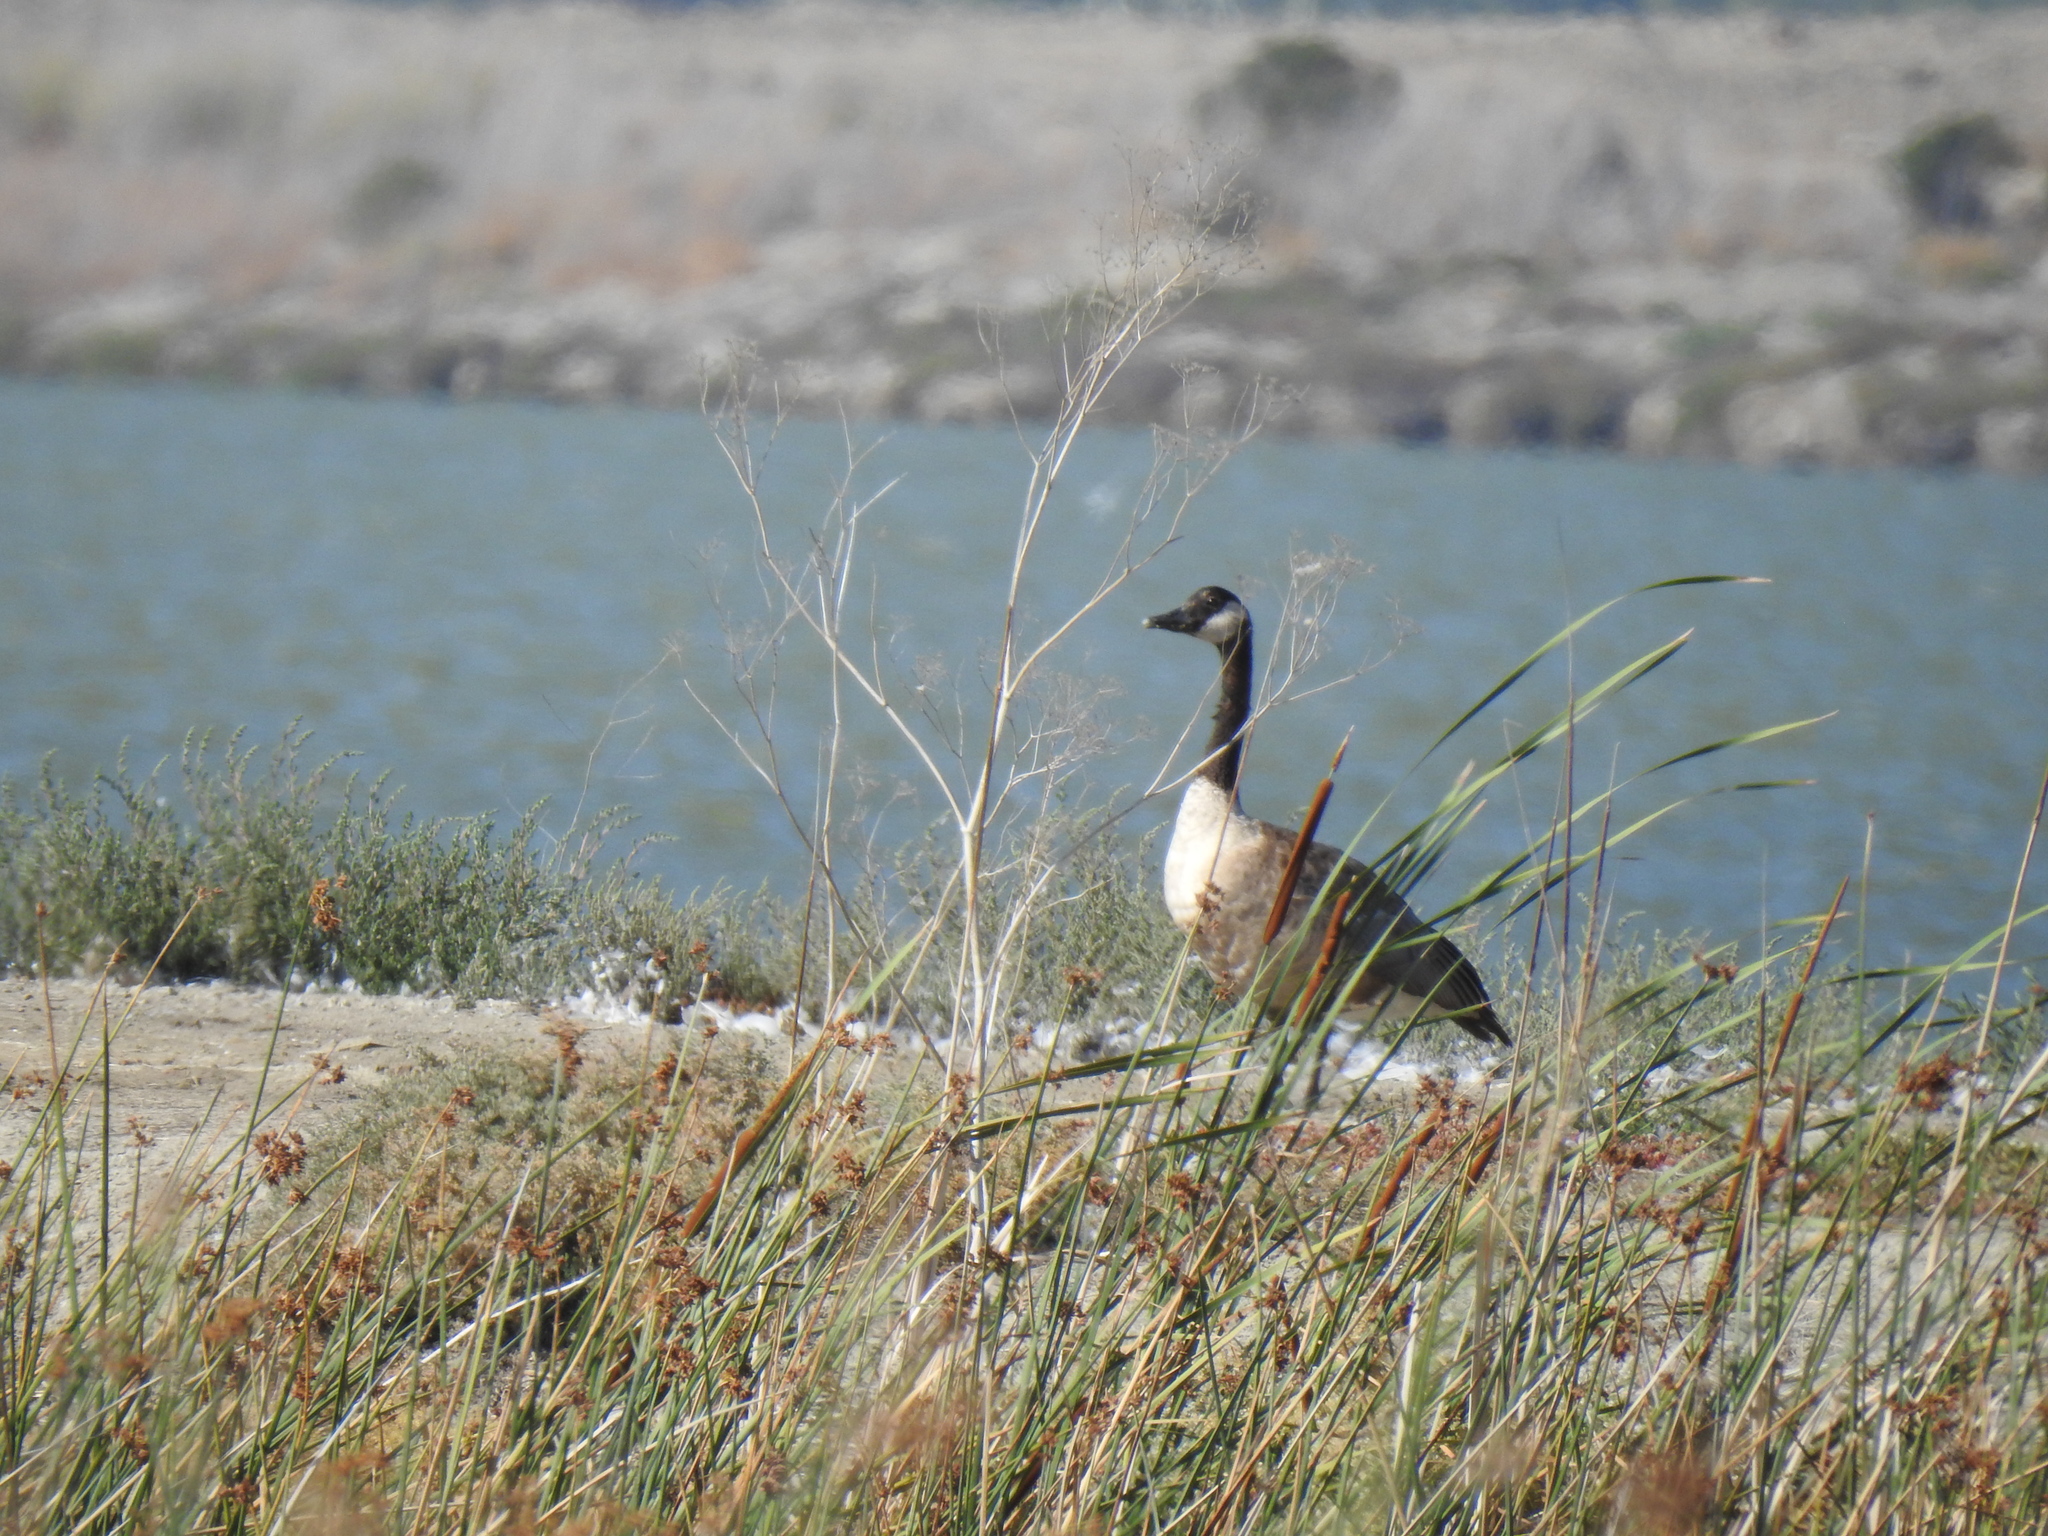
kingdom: Animalia
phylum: Chordata
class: Aves
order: Anseriformes
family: Anatidae
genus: Branta
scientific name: Branta canadensis
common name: Canada goose
